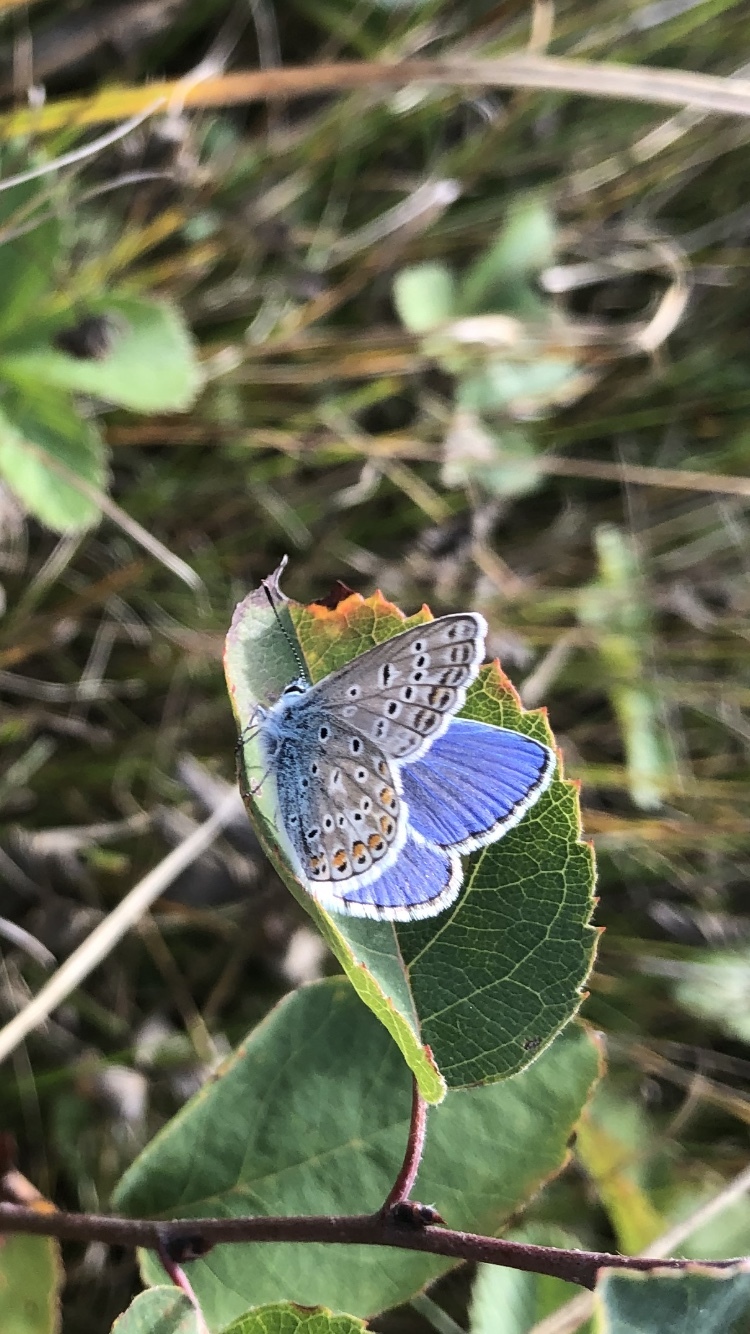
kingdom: Animalia
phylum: Arthropoda
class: Insecta
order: Lepidoptera
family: Lycaenidae
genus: Polyommatus
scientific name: Polyommatus icarus
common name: Common blue
